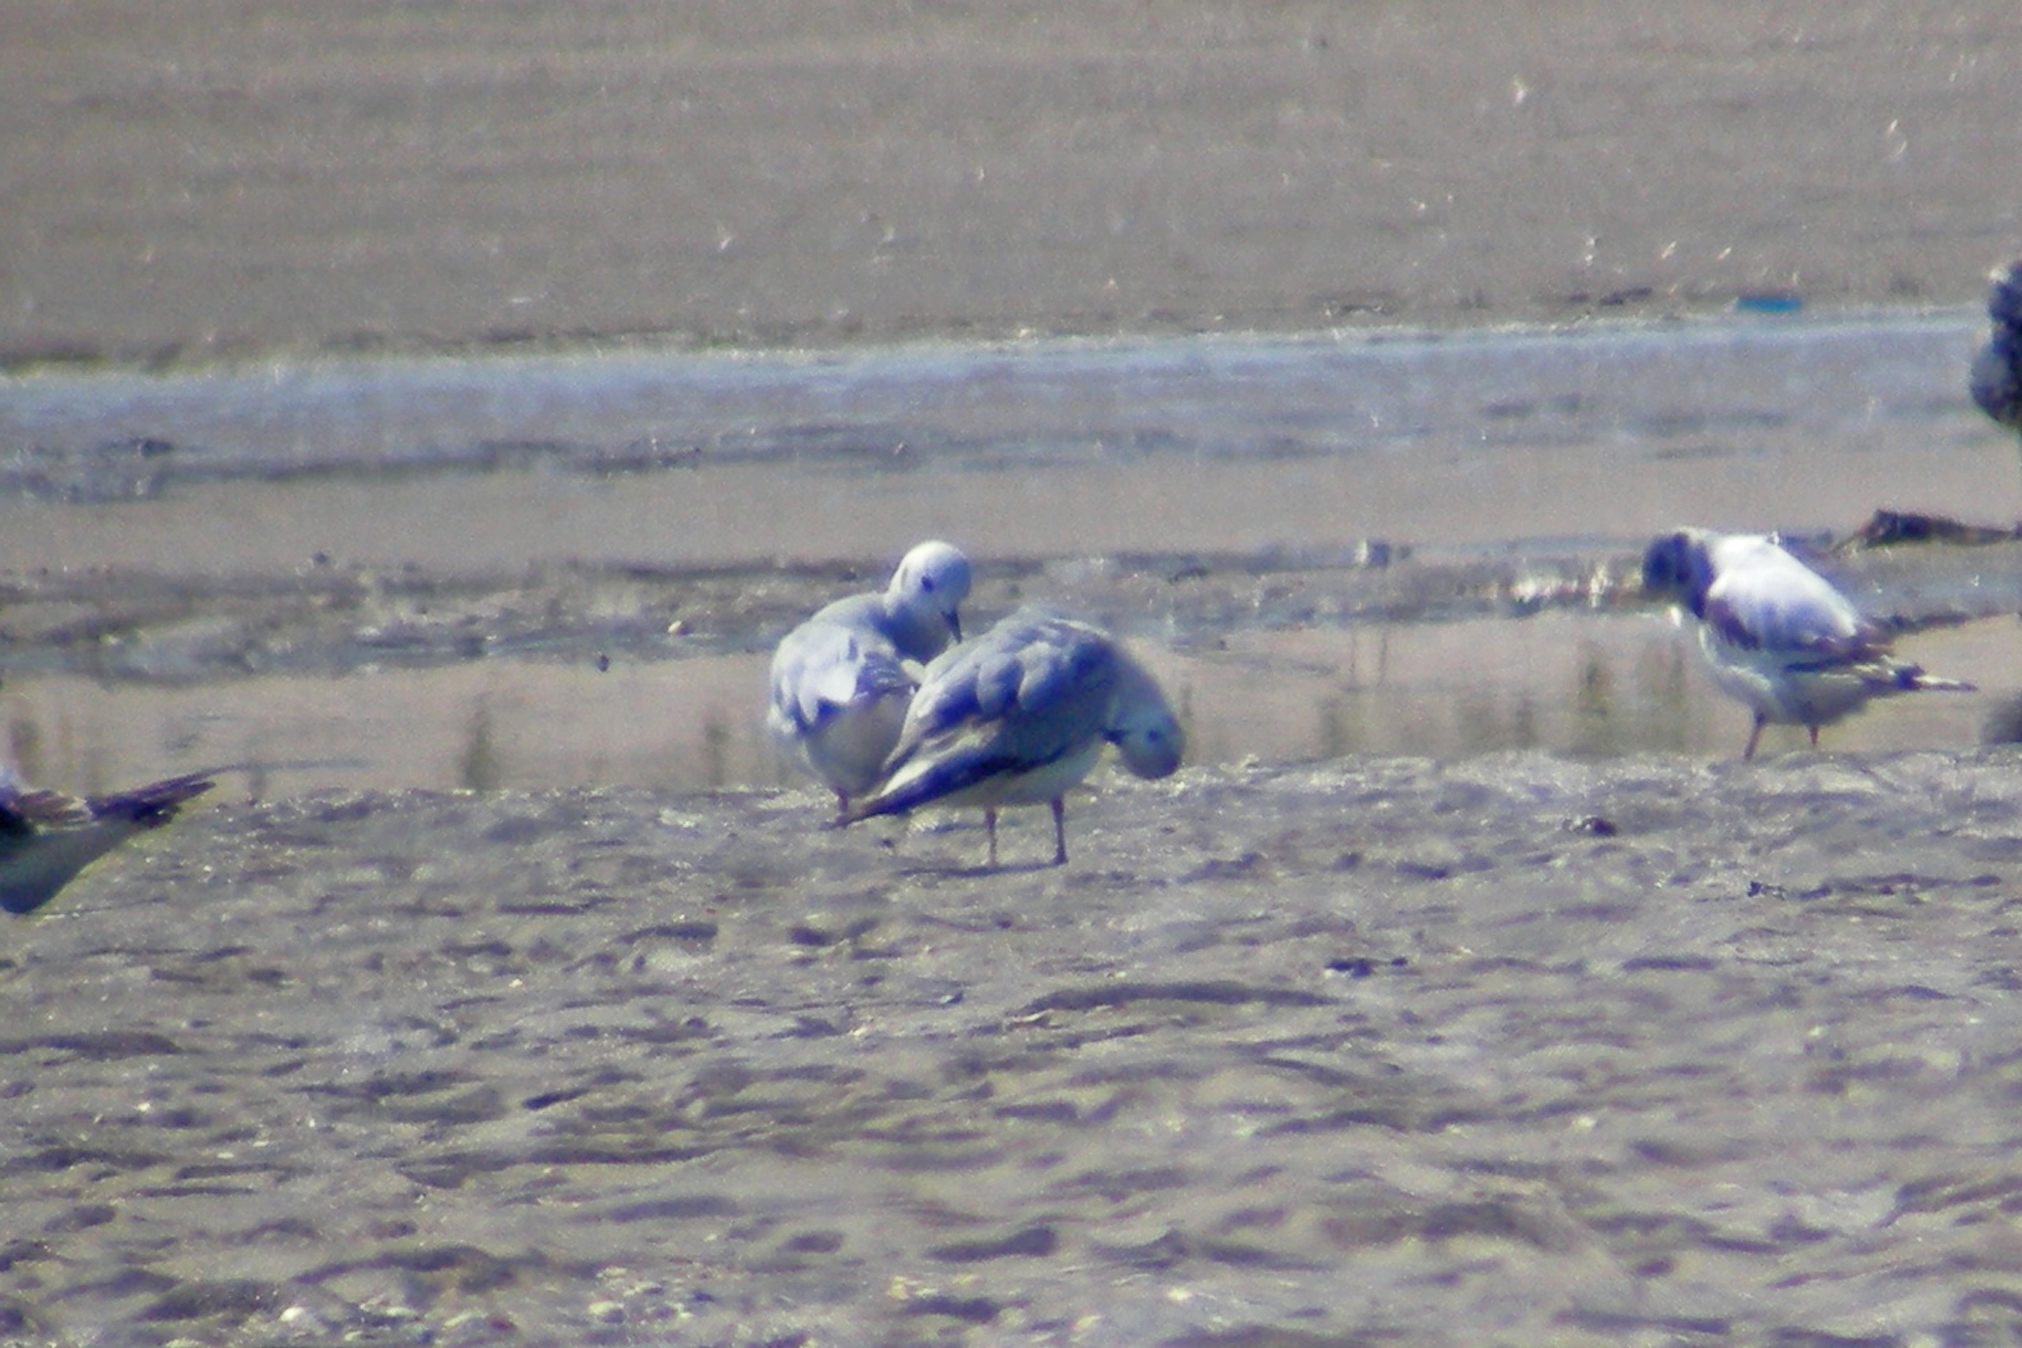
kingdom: Animalia
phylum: Chordata
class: Aves
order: Charadriiformes
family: Laridae
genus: Chroicocephalus
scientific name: Chroicocephalus philadelphia
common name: Bonaparte's gull
